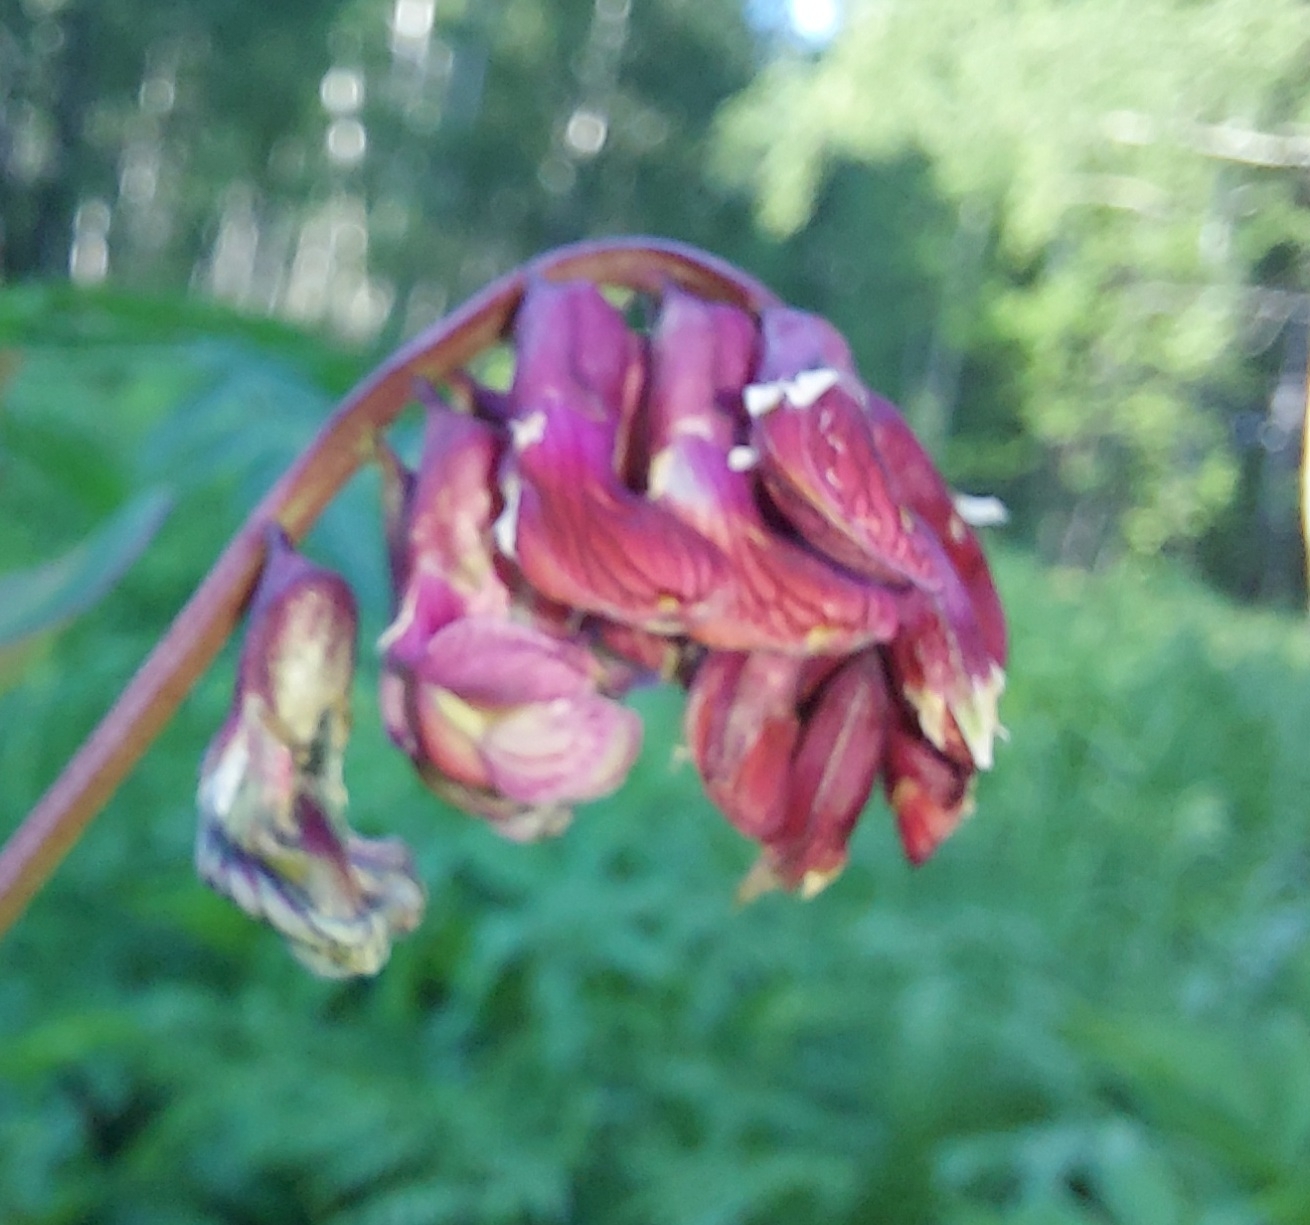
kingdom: Plantae
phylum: Tracheophyta
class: Magnoliopsida
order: Fabales
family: Fabaceae
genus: Lathyrus
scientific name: Lathyrus pisiformis
